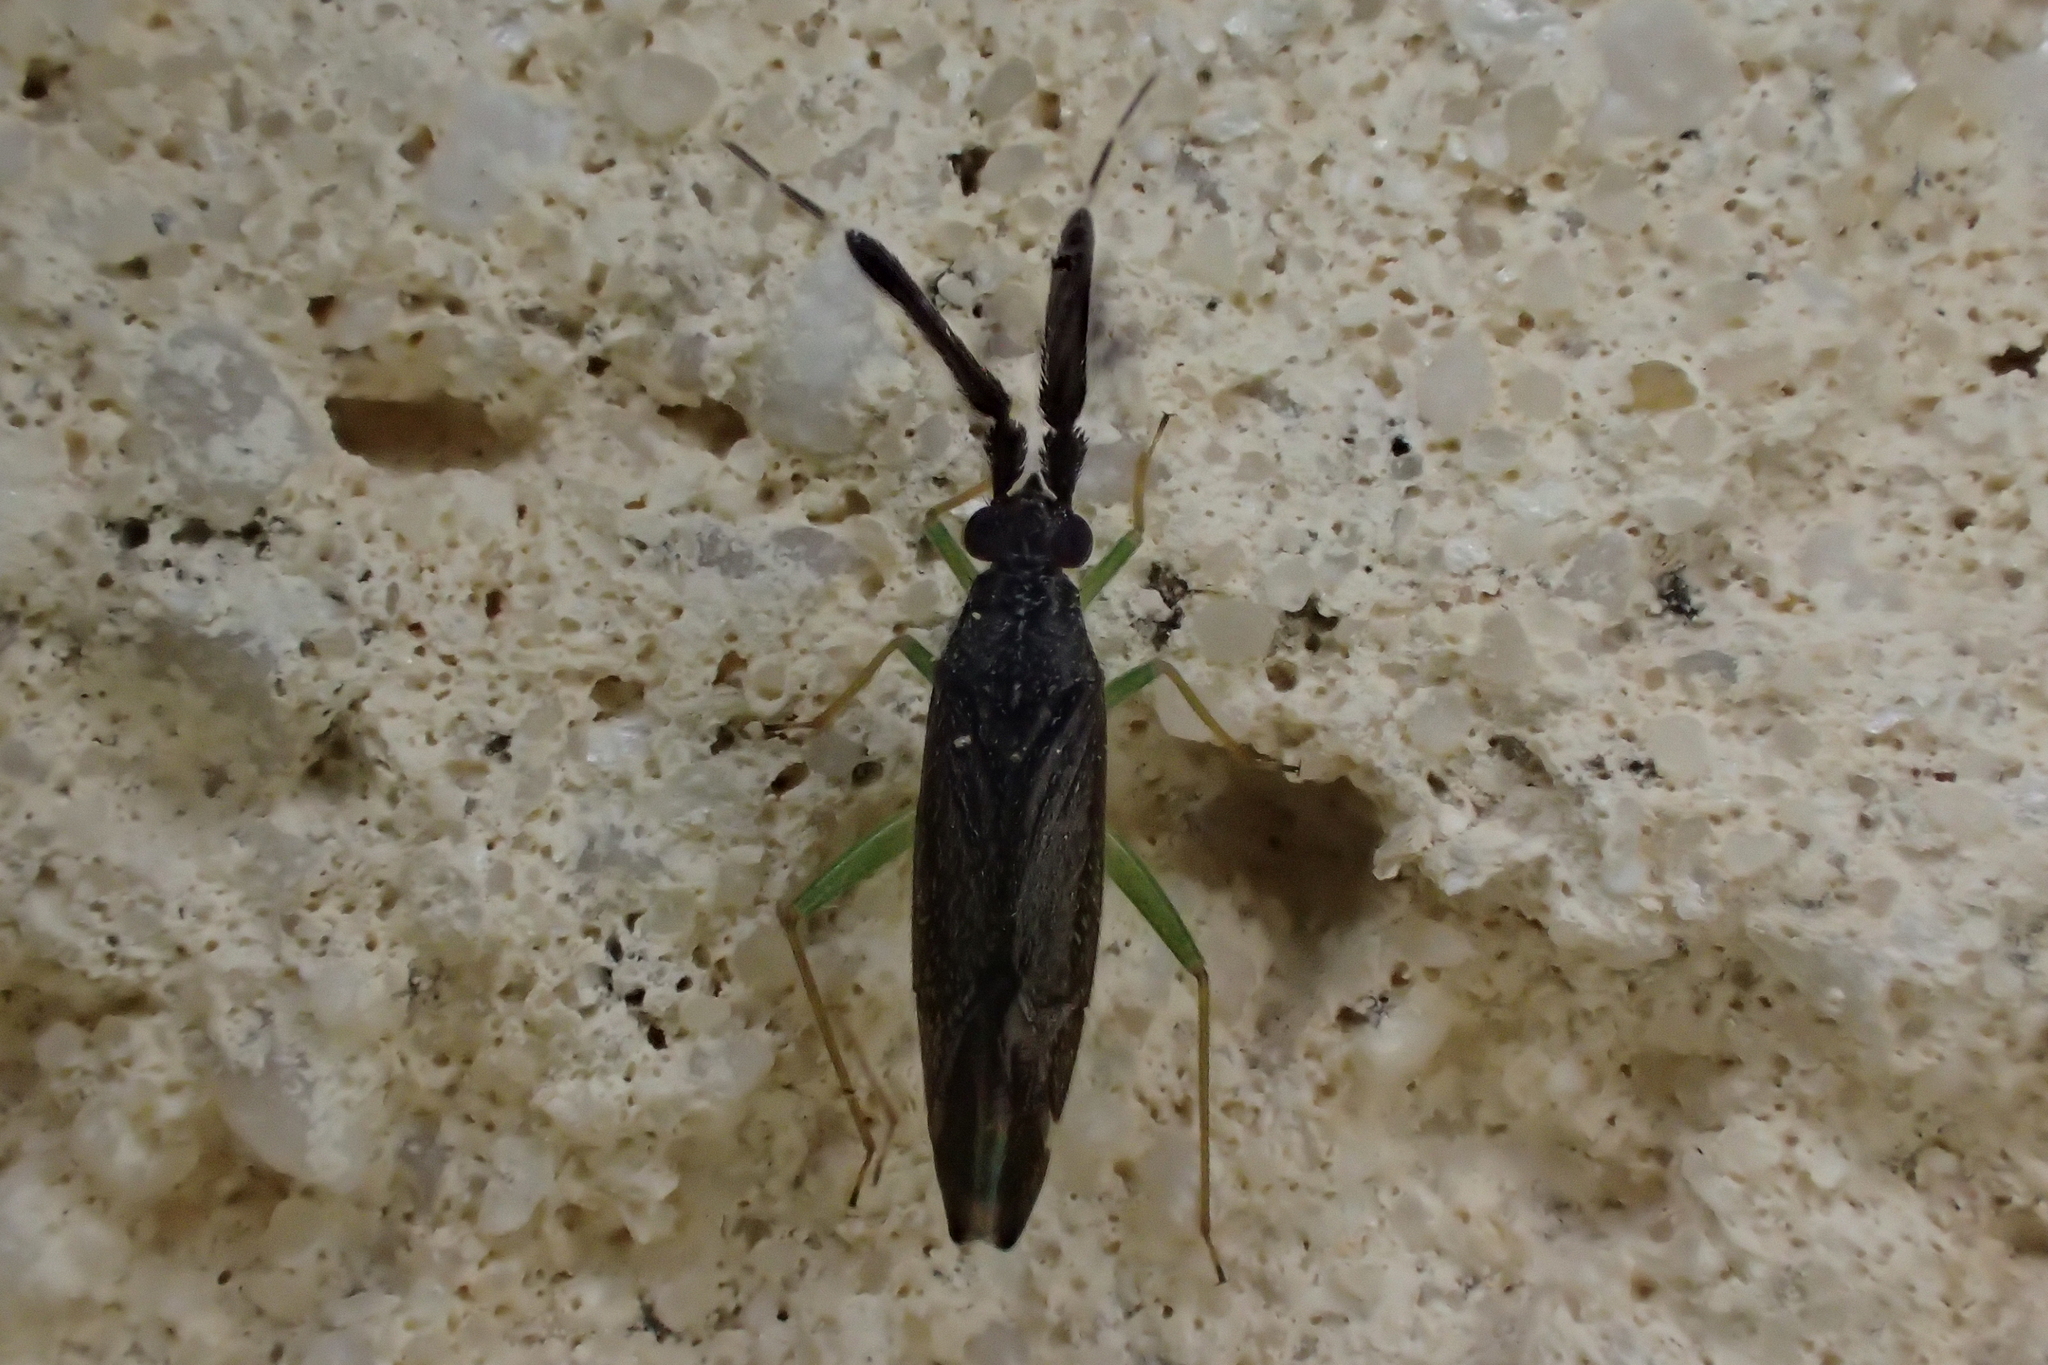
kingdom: Animalia
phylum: Arthropoda
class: Insecta
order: Hemiptera
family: Miridae
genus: Heterotoma
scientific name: Heterotoma planicornis
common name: Plant bug
